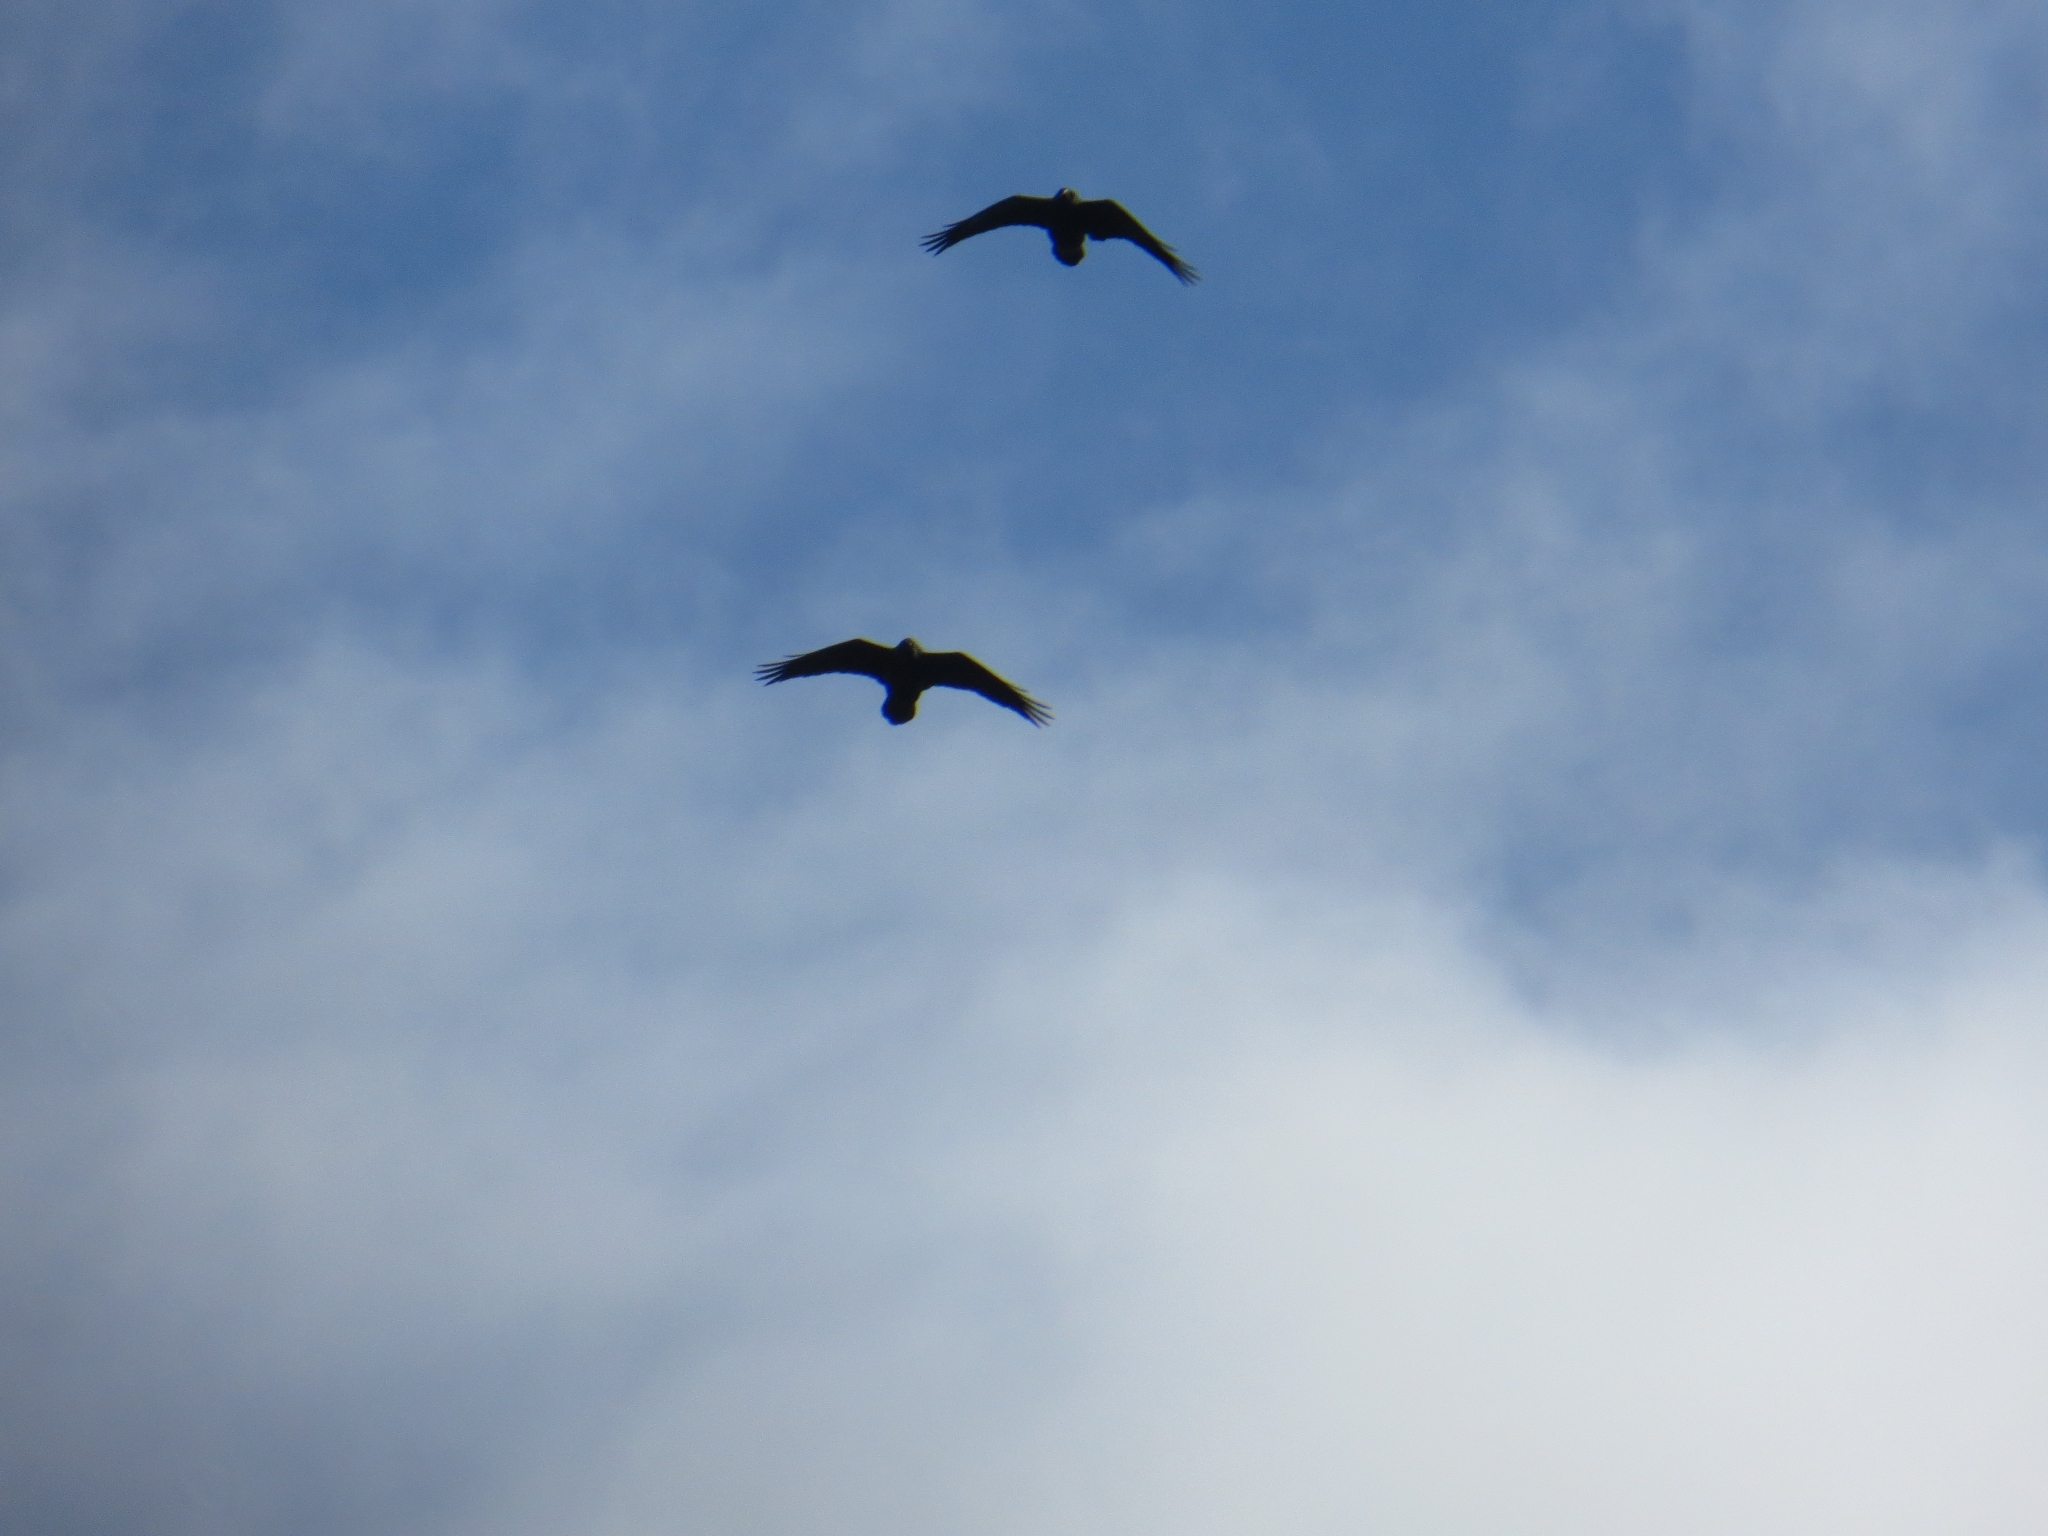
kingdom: Animalia
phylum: Chordata
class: Aves
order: Passeriformes
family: Corvidae
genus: Corvus
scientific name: Corvus corax
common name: Common raven
